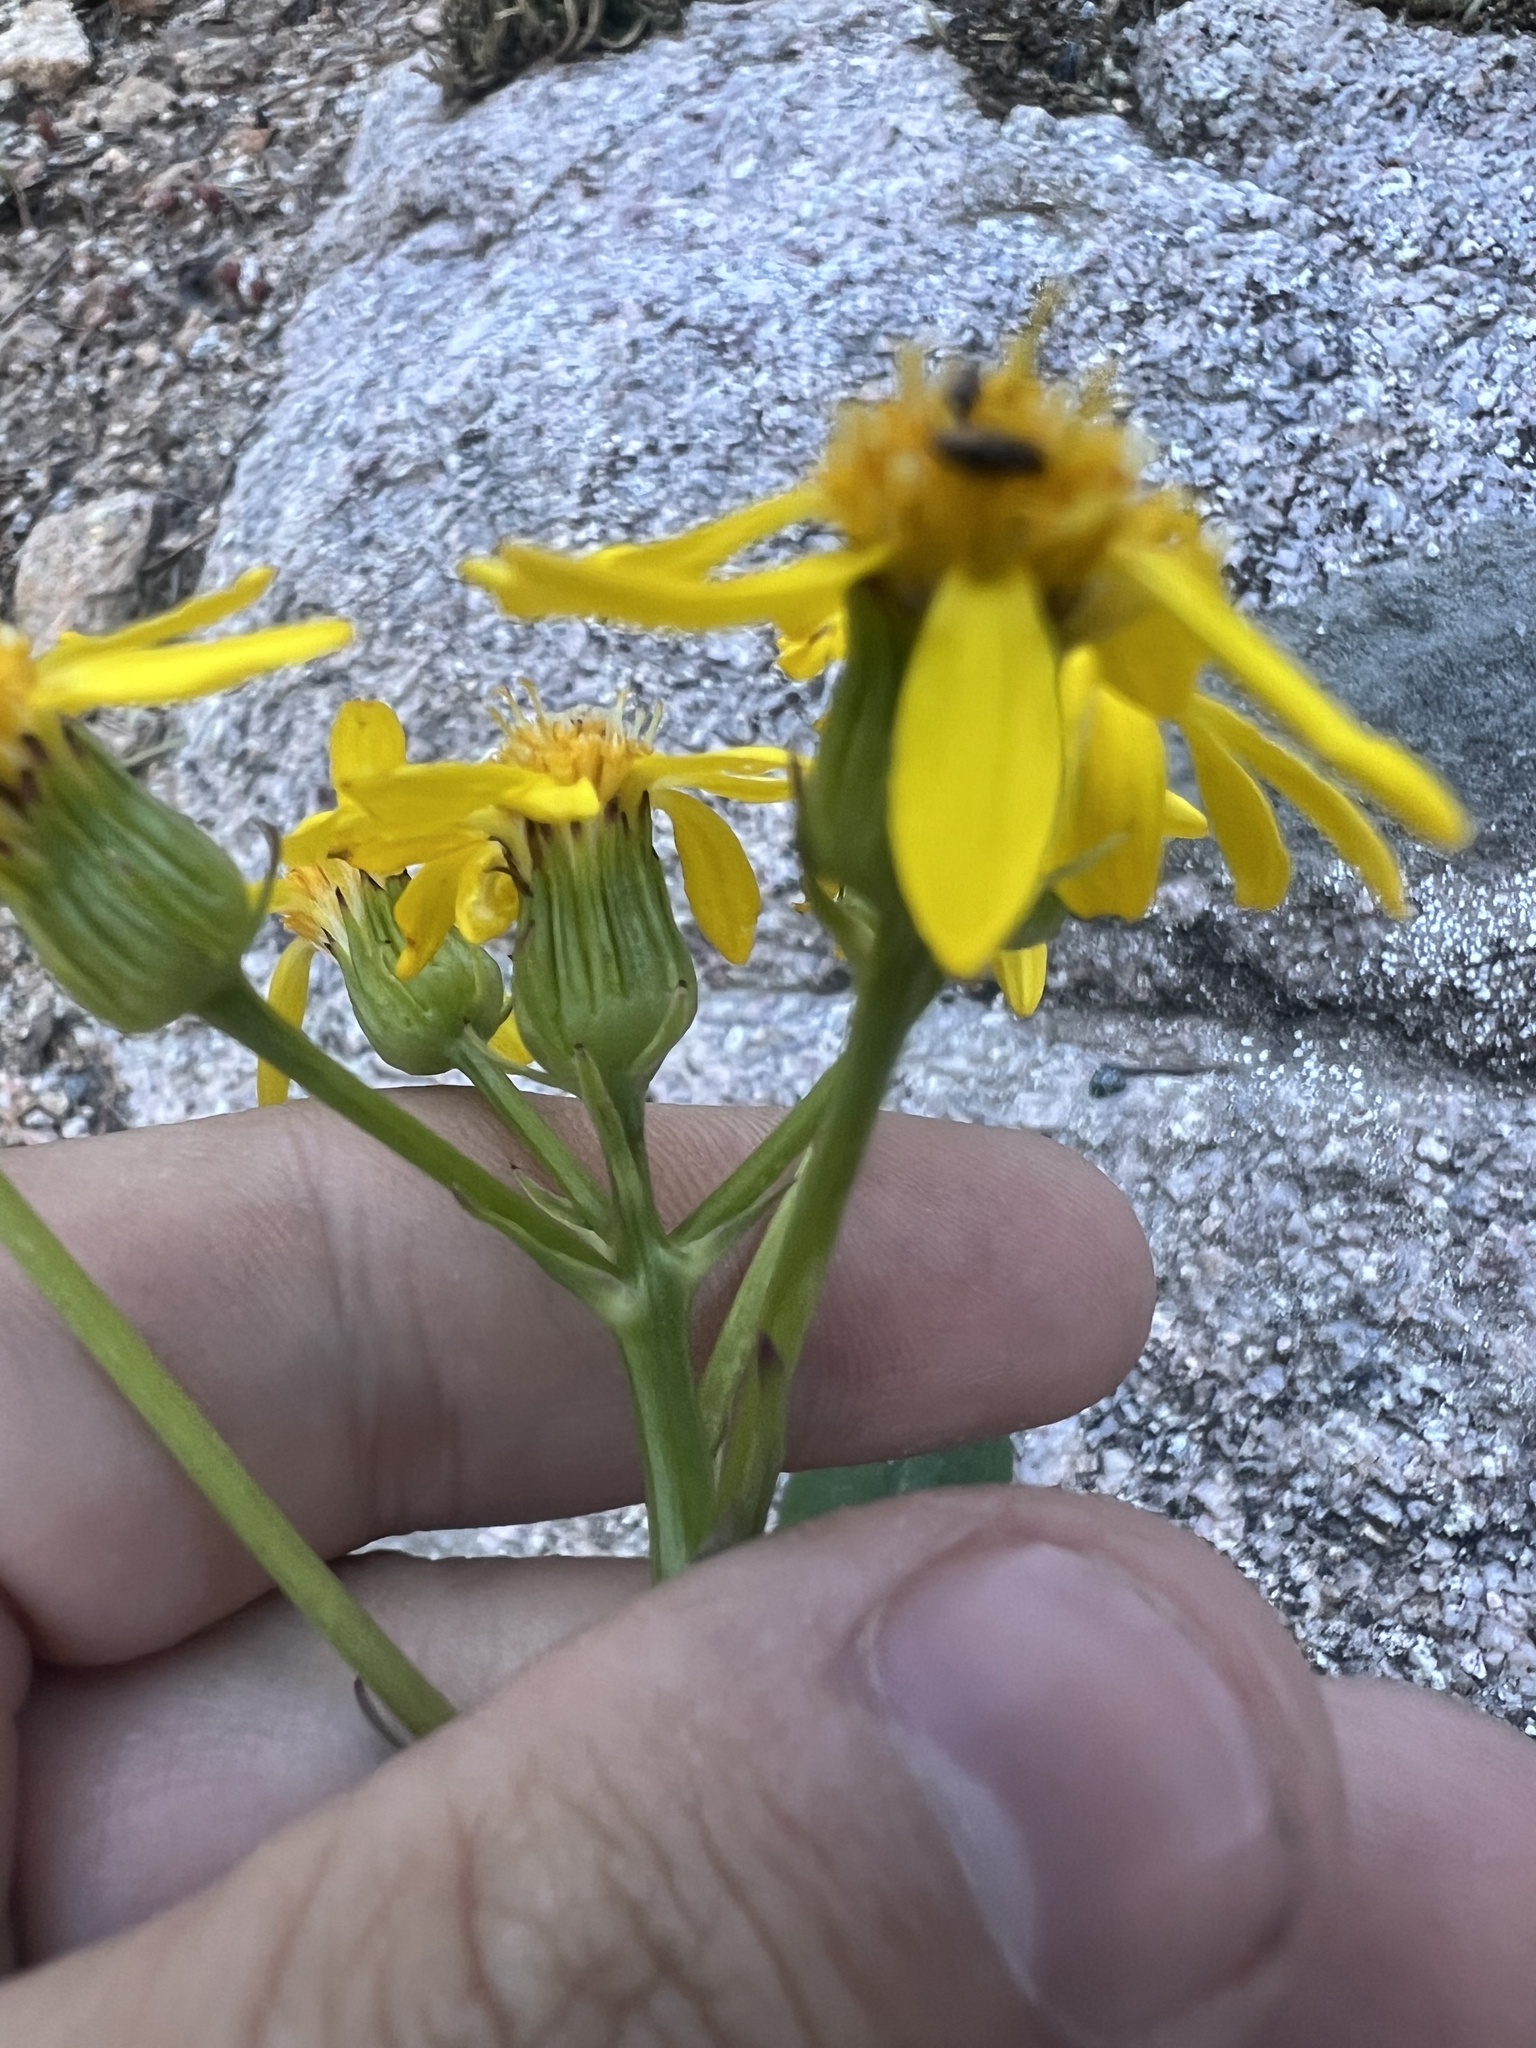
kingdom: Plantae
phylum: Tracheophyta
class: Magnoliopsida
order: Asterales
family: Asteraceae
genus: Senecio
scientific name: Senecio crassulus
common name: Mountain-meadow butterweed
